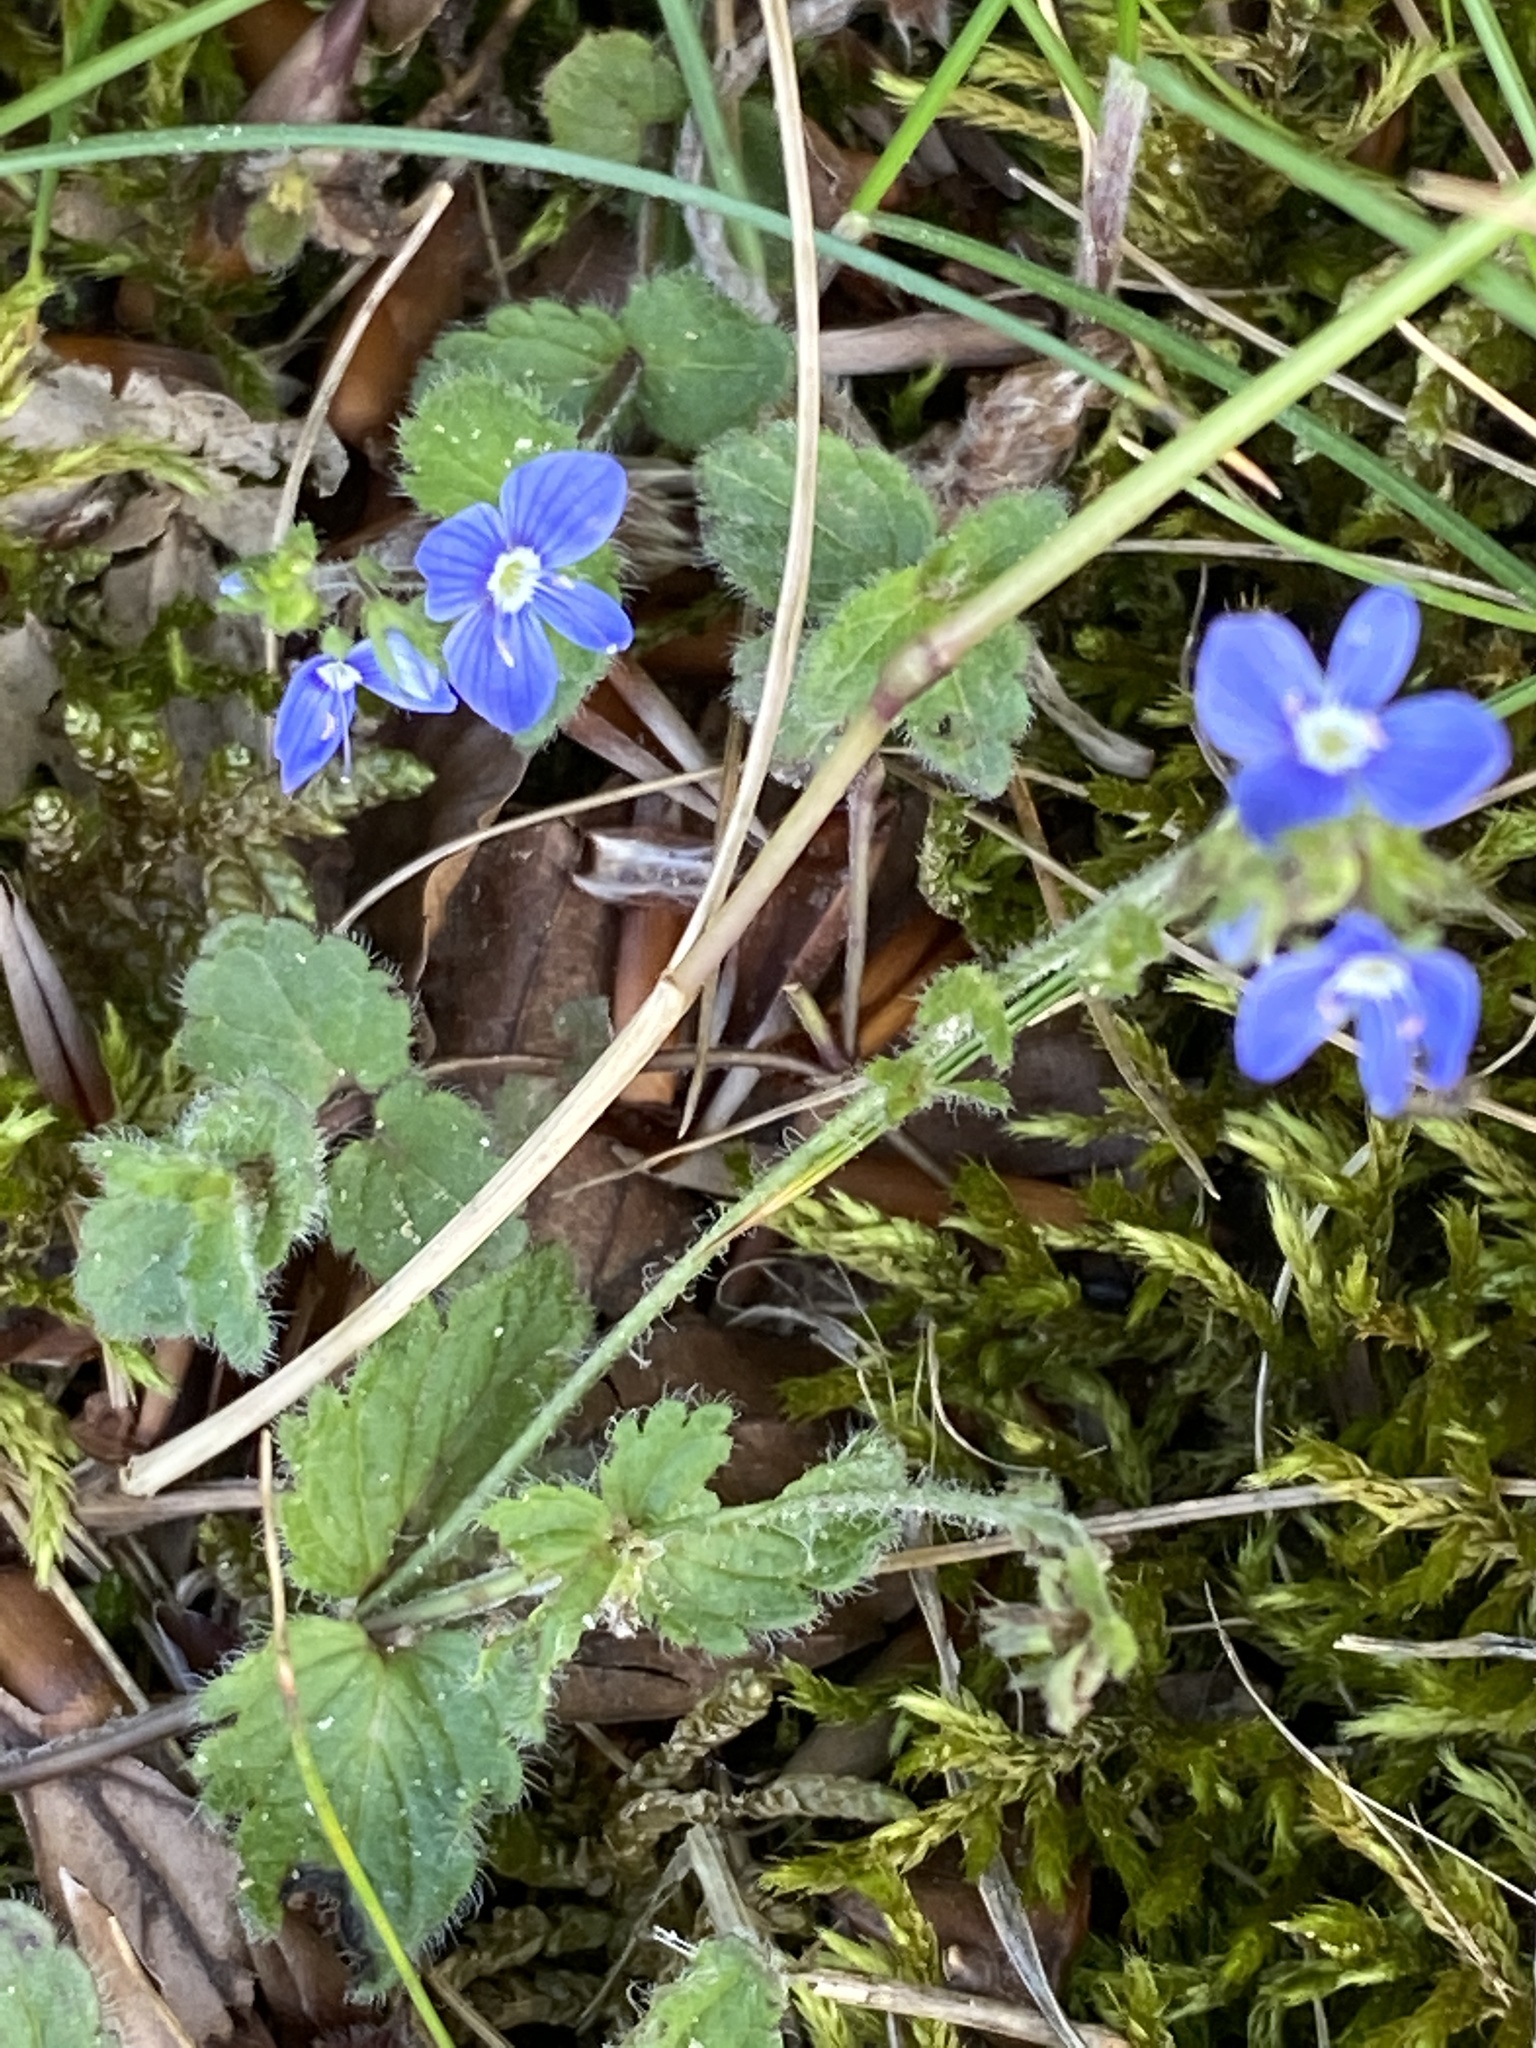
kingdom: Plantae
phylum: Tracheophyta
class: Magnoliopsida
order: Lamiales
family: Plantaginaceae
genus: Veronica
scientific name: Veronica chamaedrys
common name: Germander speedwell
